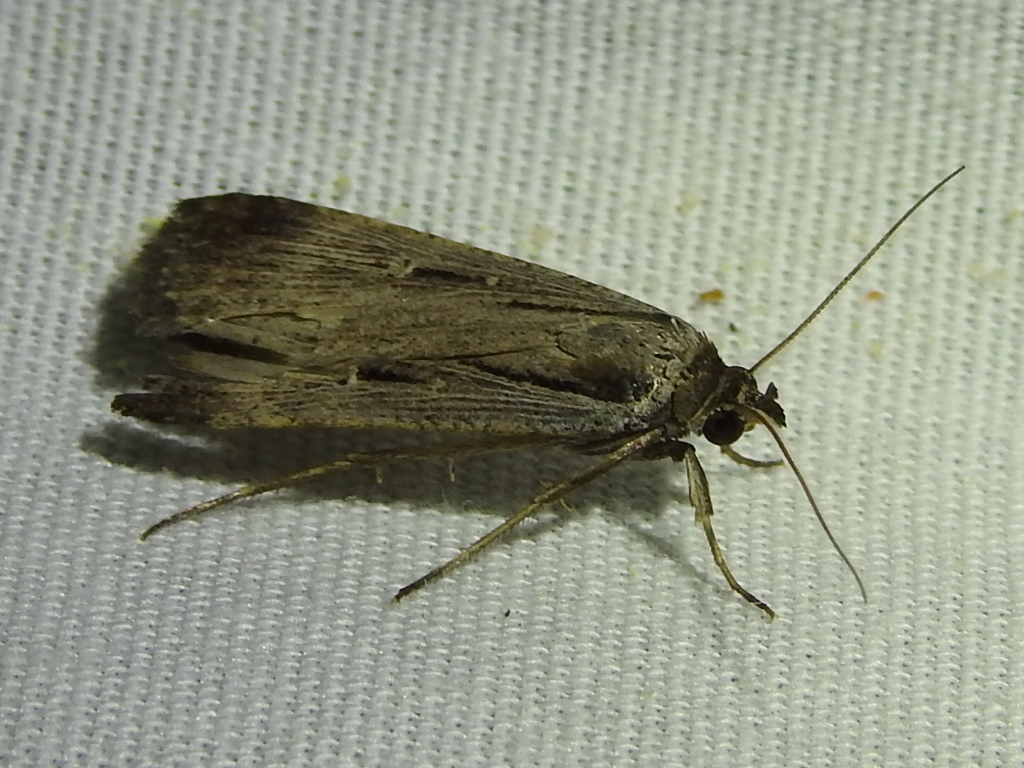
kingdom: Animalia
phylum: Arthropoda
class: Insecta
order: Lepidoptera
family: Noctuidae
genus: Tathorhynchus
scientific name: Tathorhynchus exsiccata
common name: Levant blackneck moth
